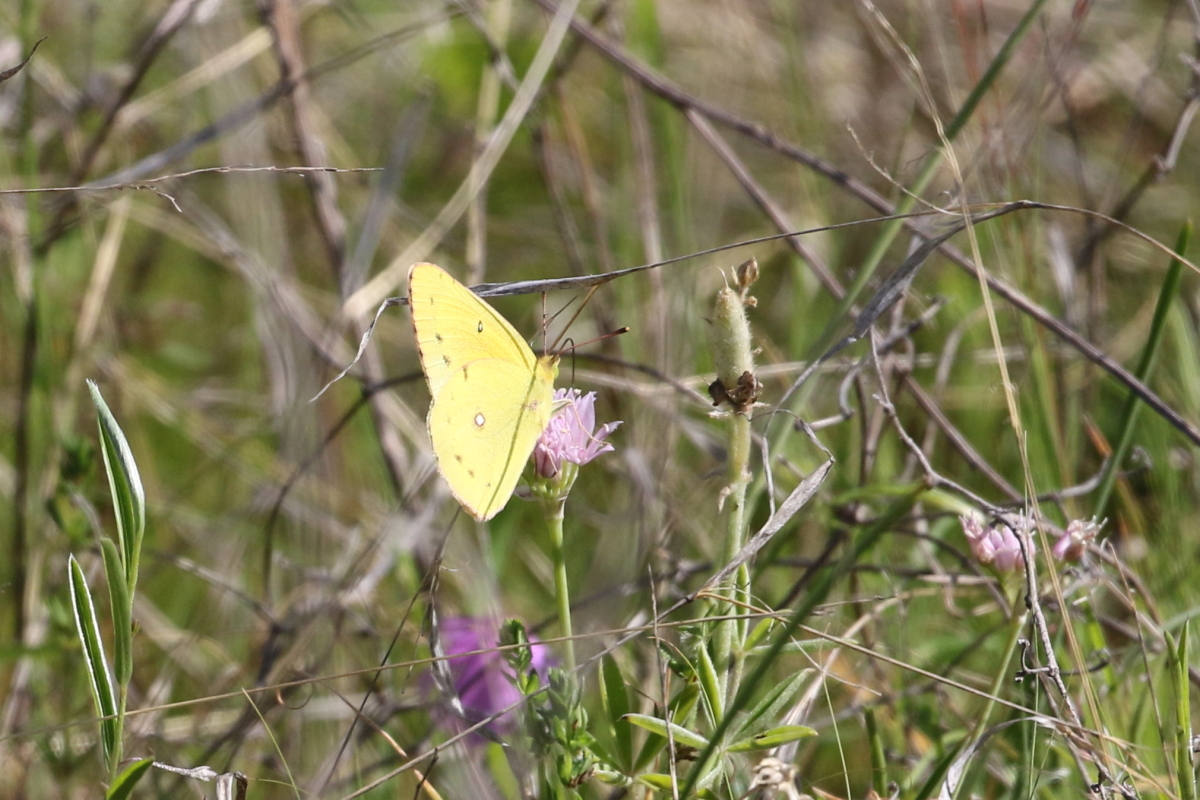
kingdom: Animalia
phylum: Arthropoda
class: Insecta
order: Lepidoptera
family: Pieridae
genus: Colias
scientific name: Colias eurytheme
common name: Alfalfa butterfly
